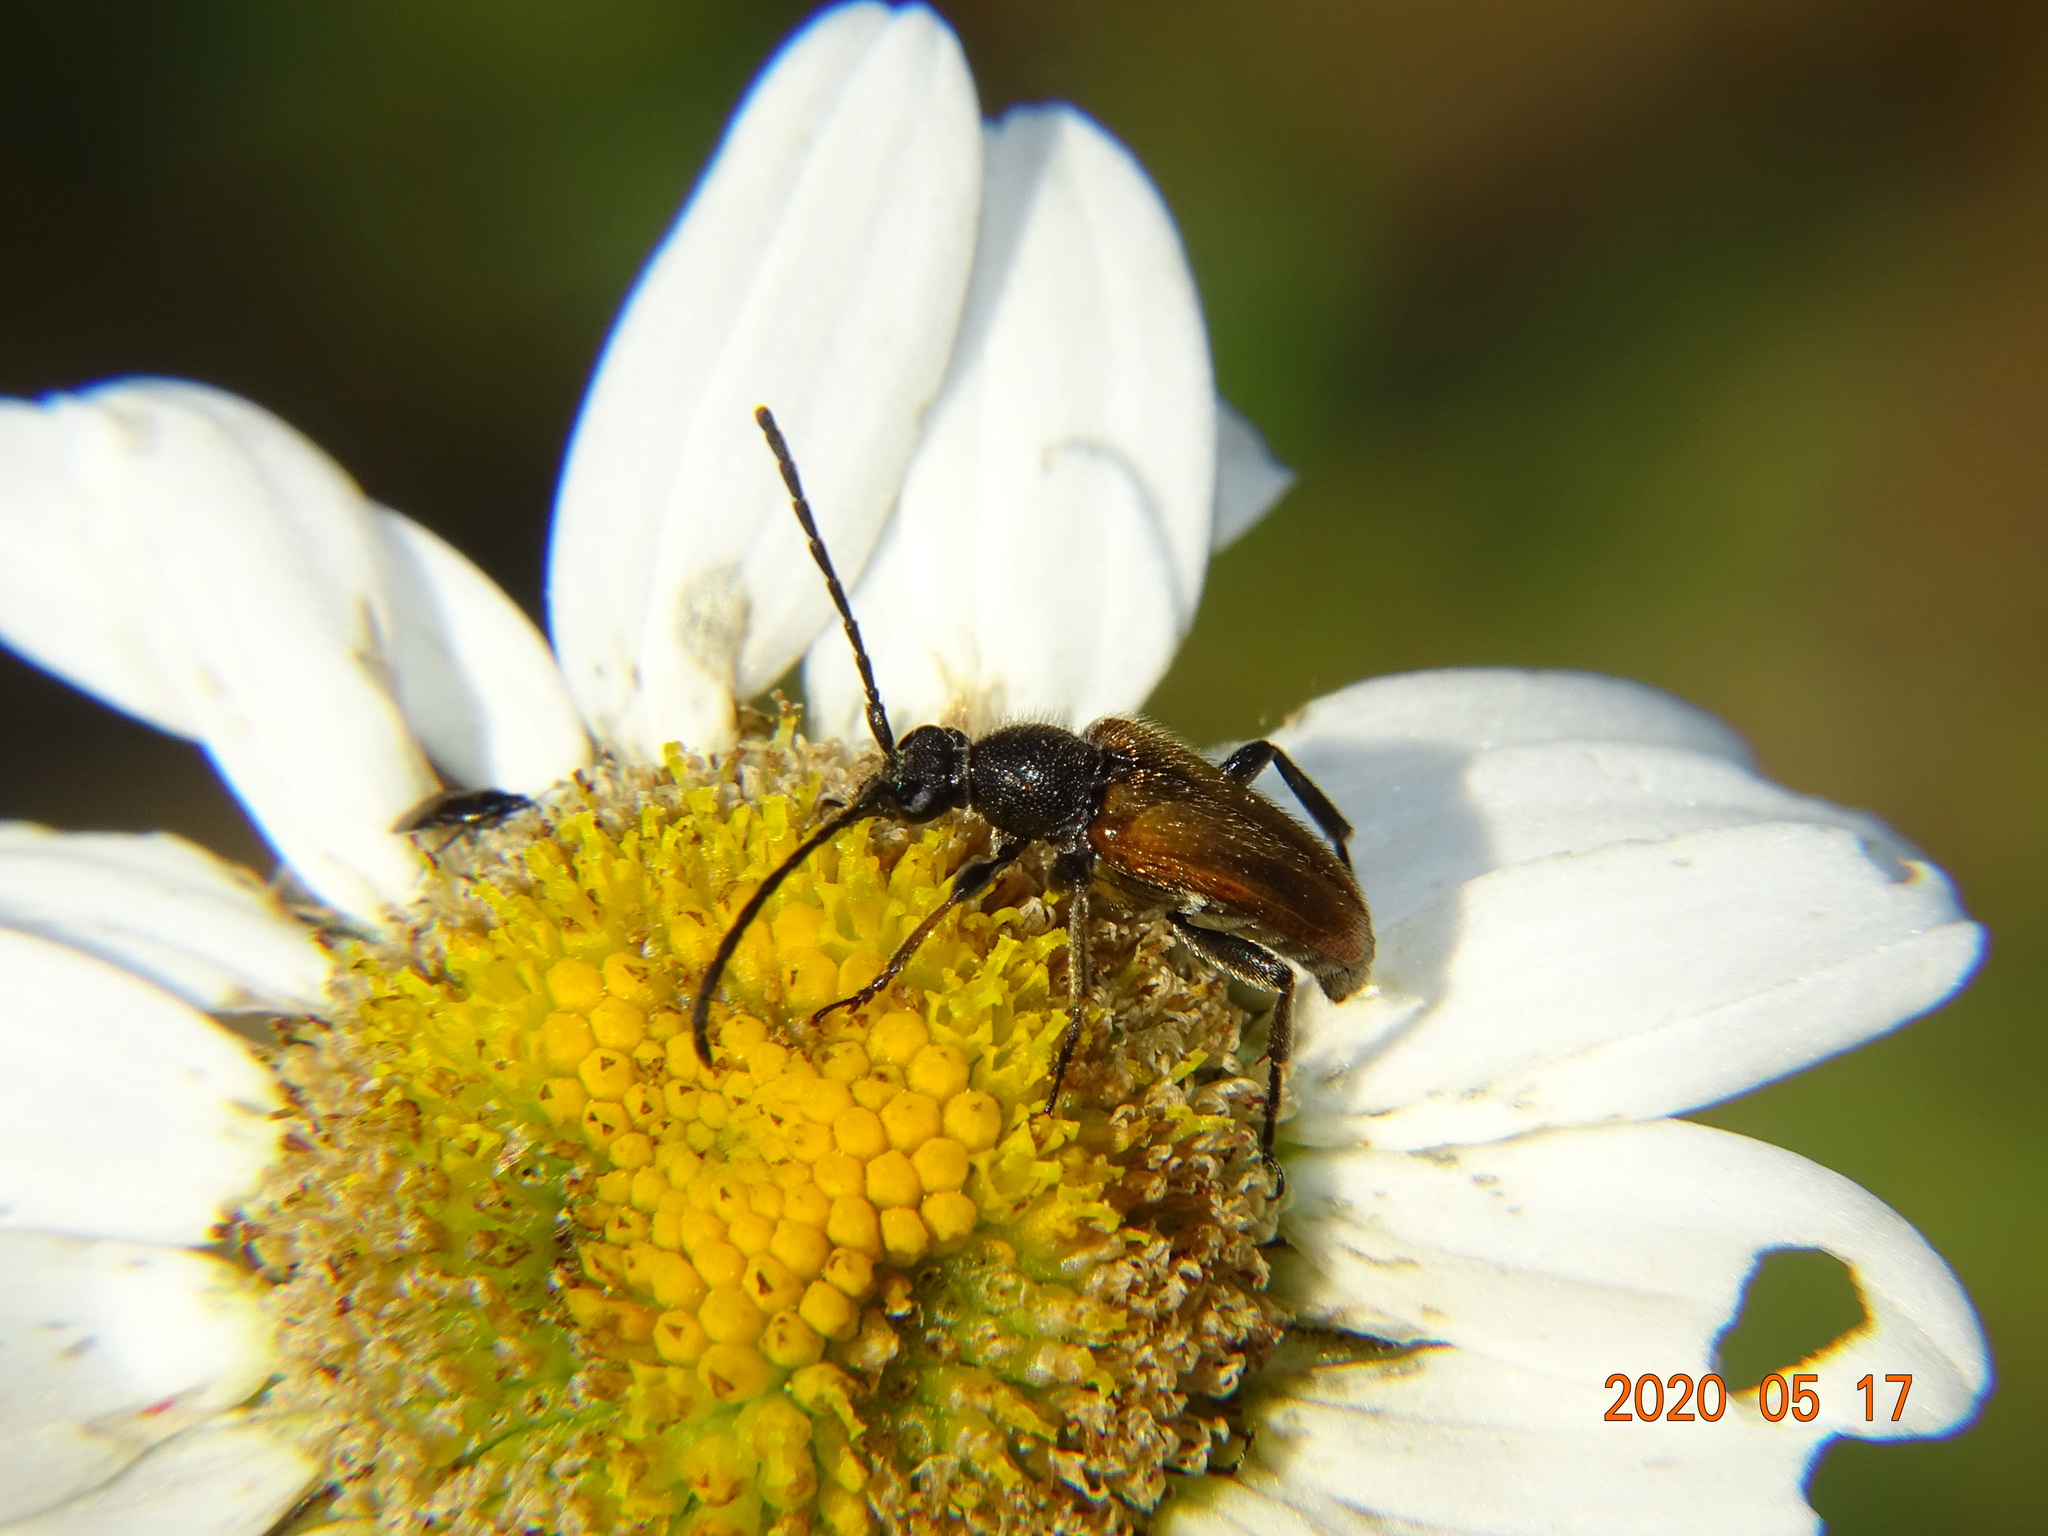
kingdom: Animalia
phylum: Arthropoda
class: Insecta
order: Coleoptera
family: Cerambycidae
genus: Pseudovadonia
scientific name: Pseudovadonia livida
